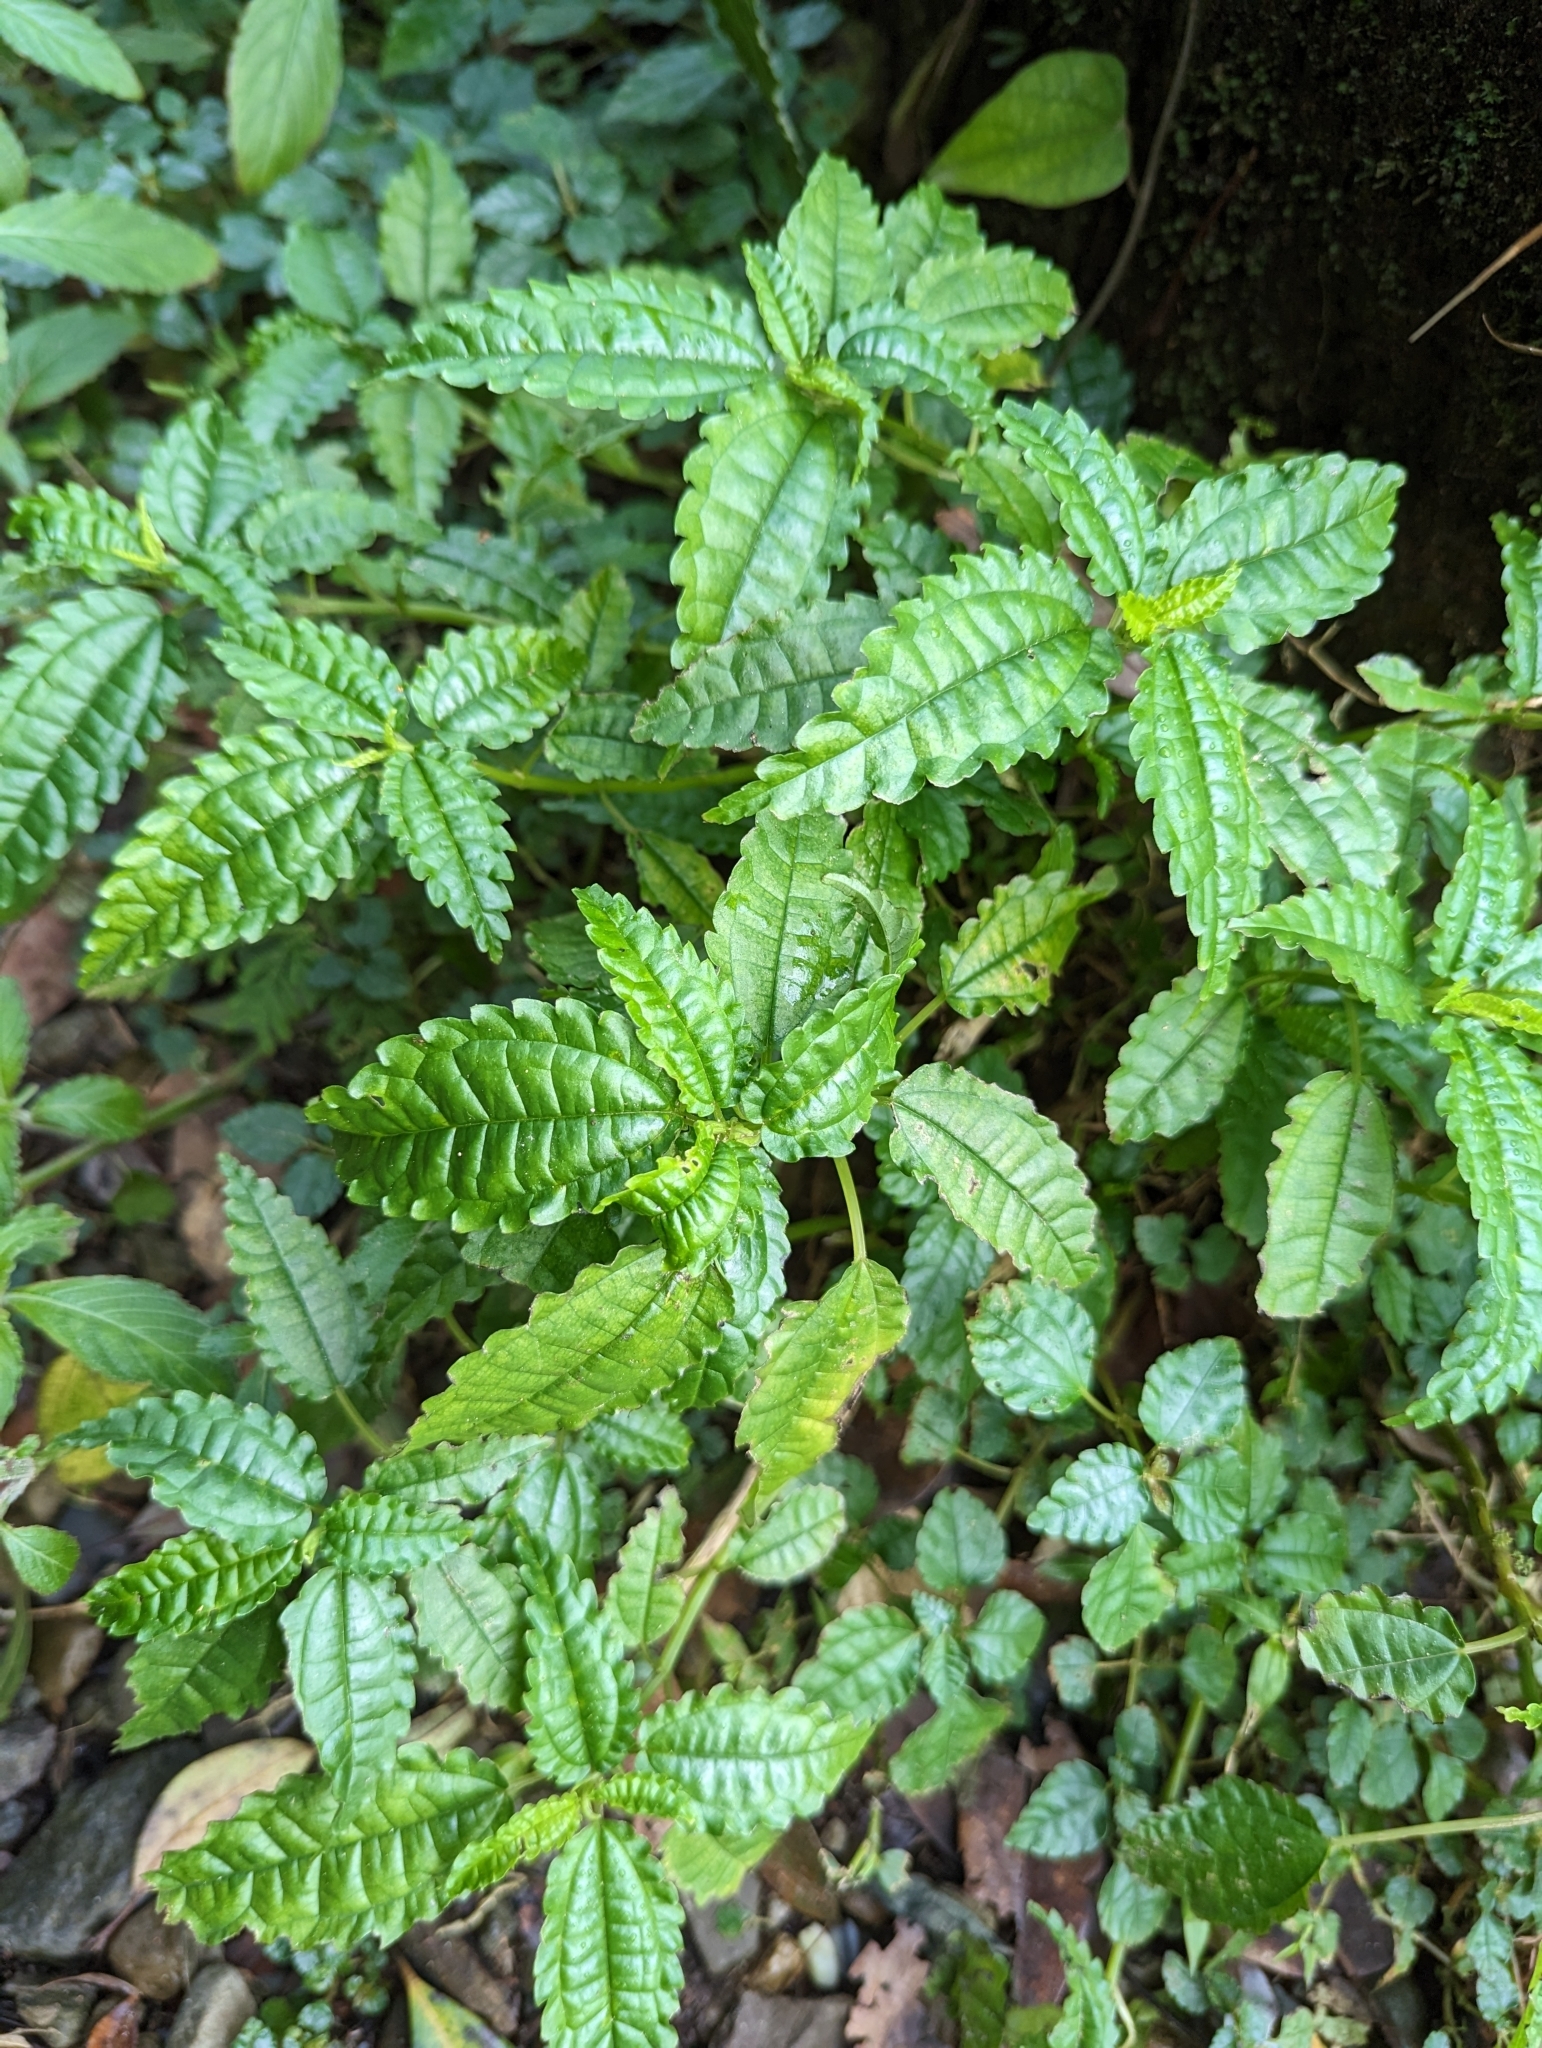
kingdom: Plantae
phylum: Tracheophyta
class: Magnoliopsida
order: Rosales
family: Urticaceae
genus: Pilea
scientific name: Pilea angulata
